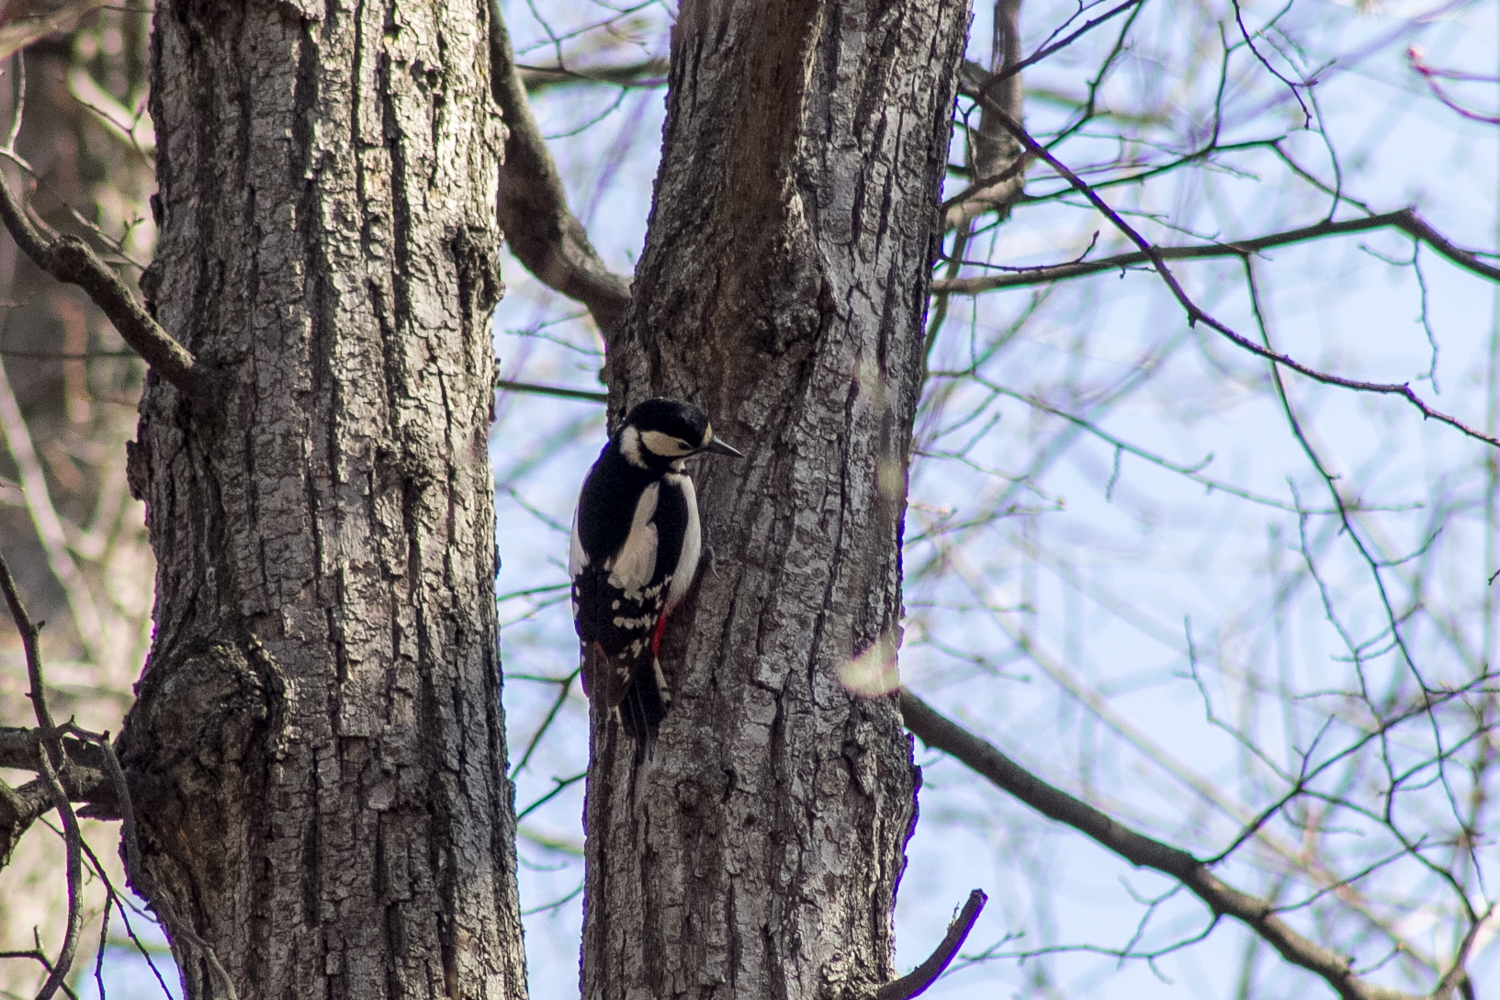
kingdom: Animalia
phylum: Chordata
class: Aves
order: Piciformes
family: Picidae
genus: Dendrocopos
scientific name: Dendrocopos major
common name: Great spotted woodpecker
